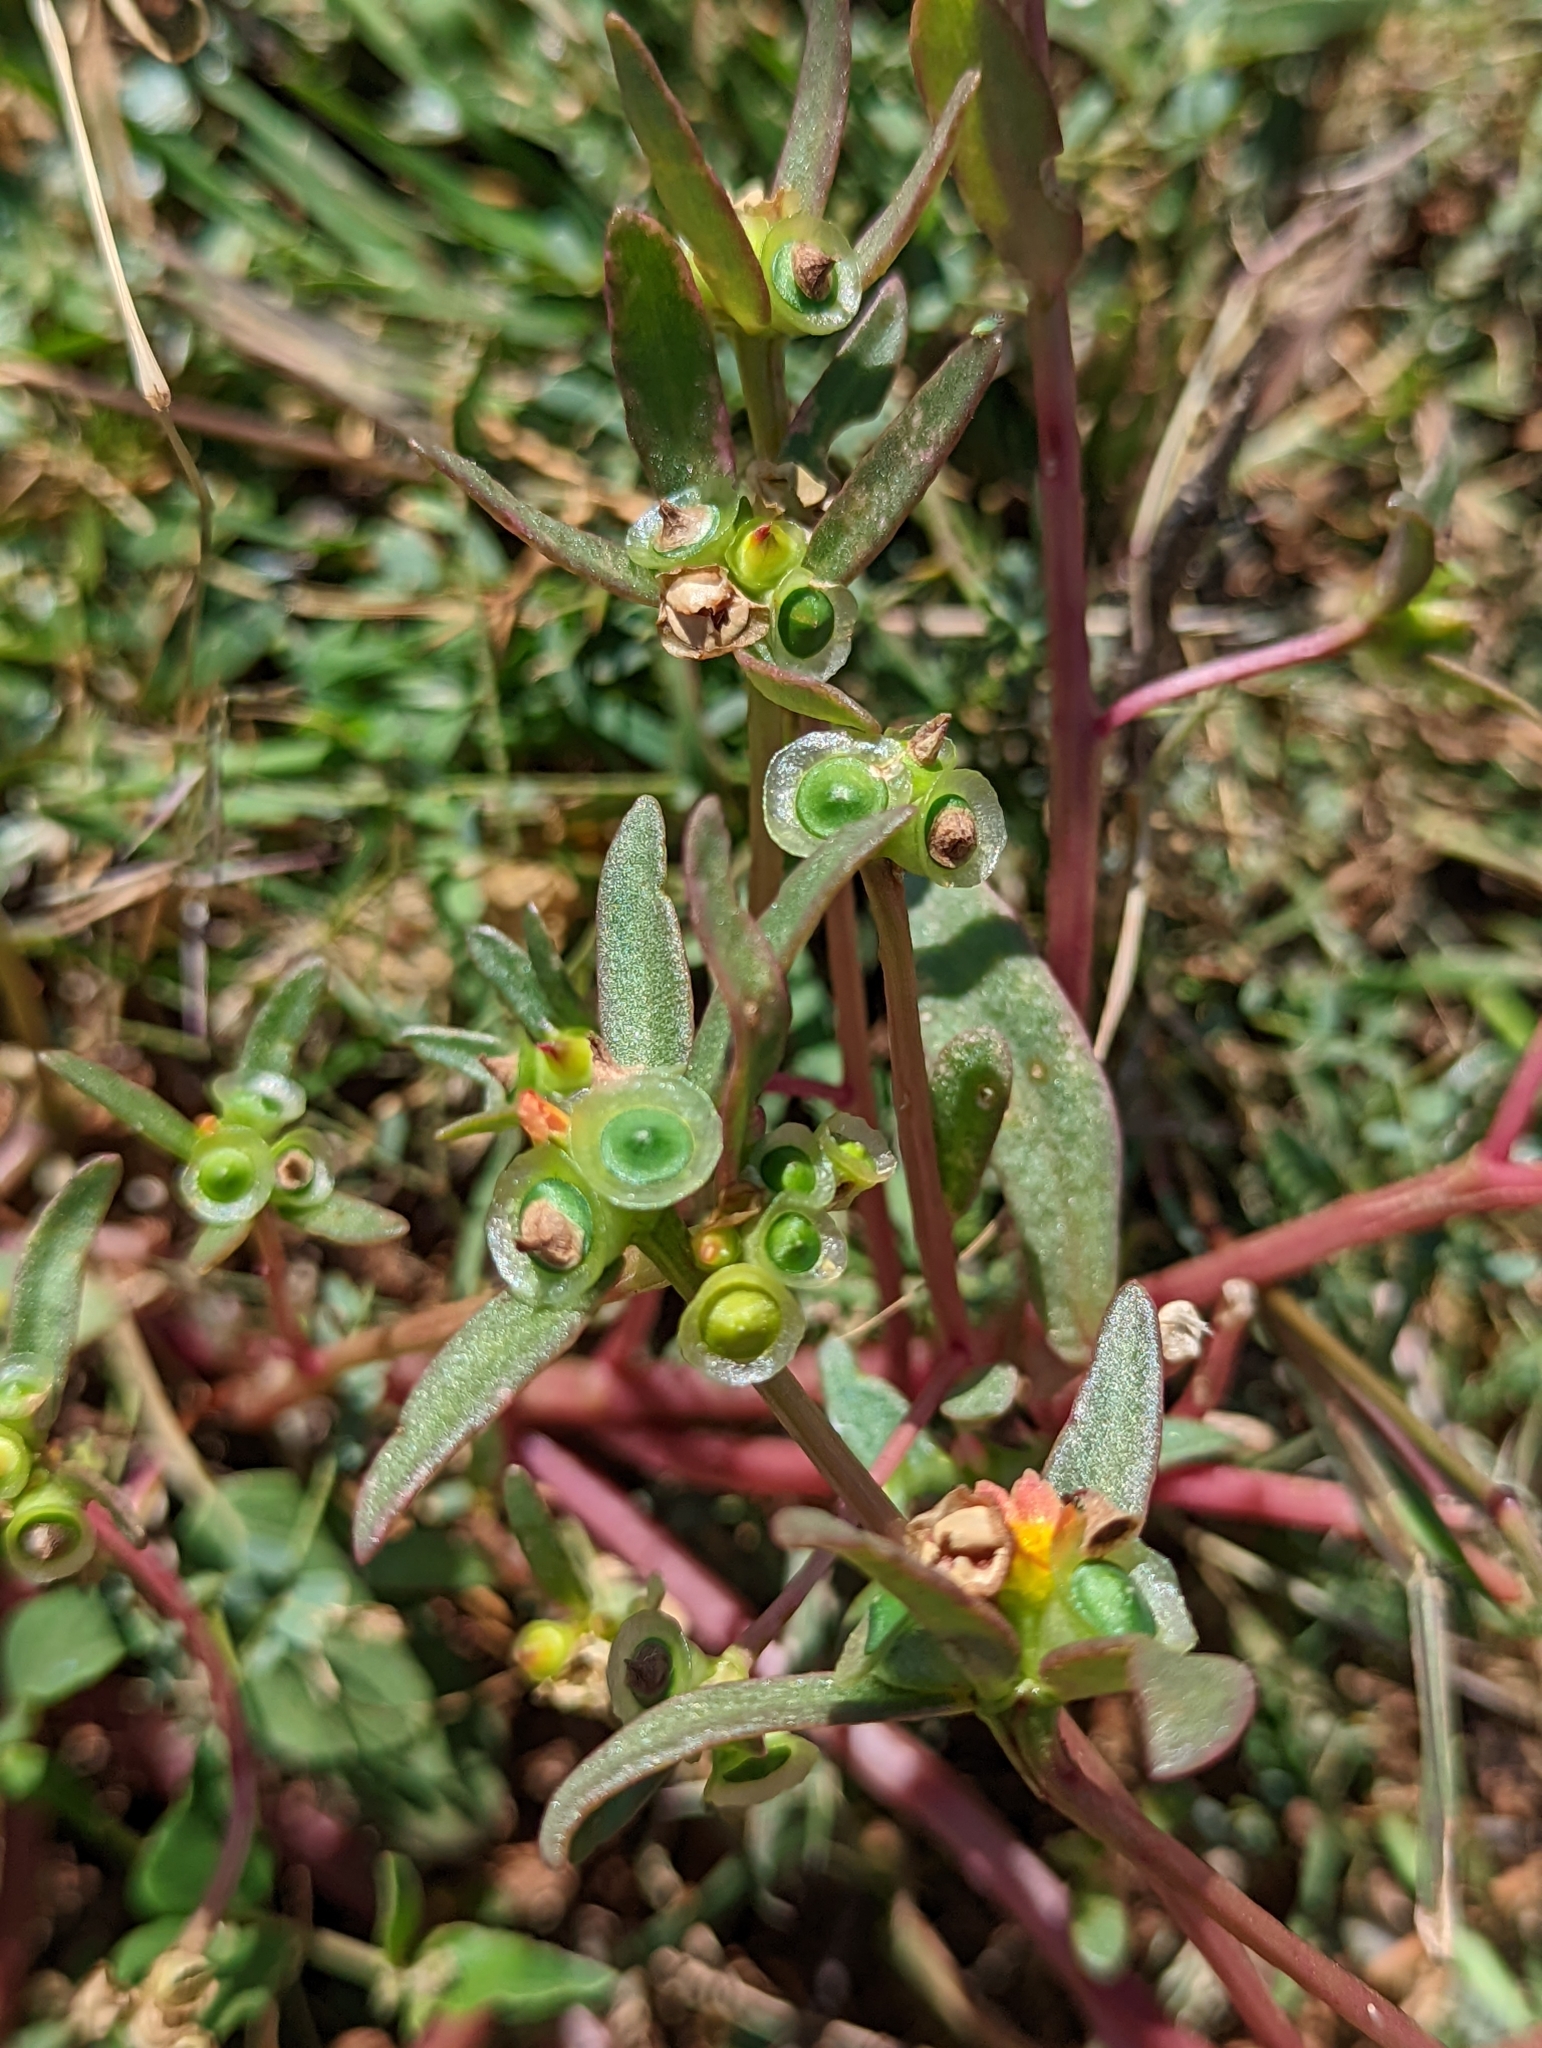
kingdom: Plantae
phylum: Tracheophyta
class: Magnoliopsida
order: Caryophyllales
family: Portulacaceae
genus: Portulaca
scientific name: Portulaca umbraticola
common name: Wingpod purslane
